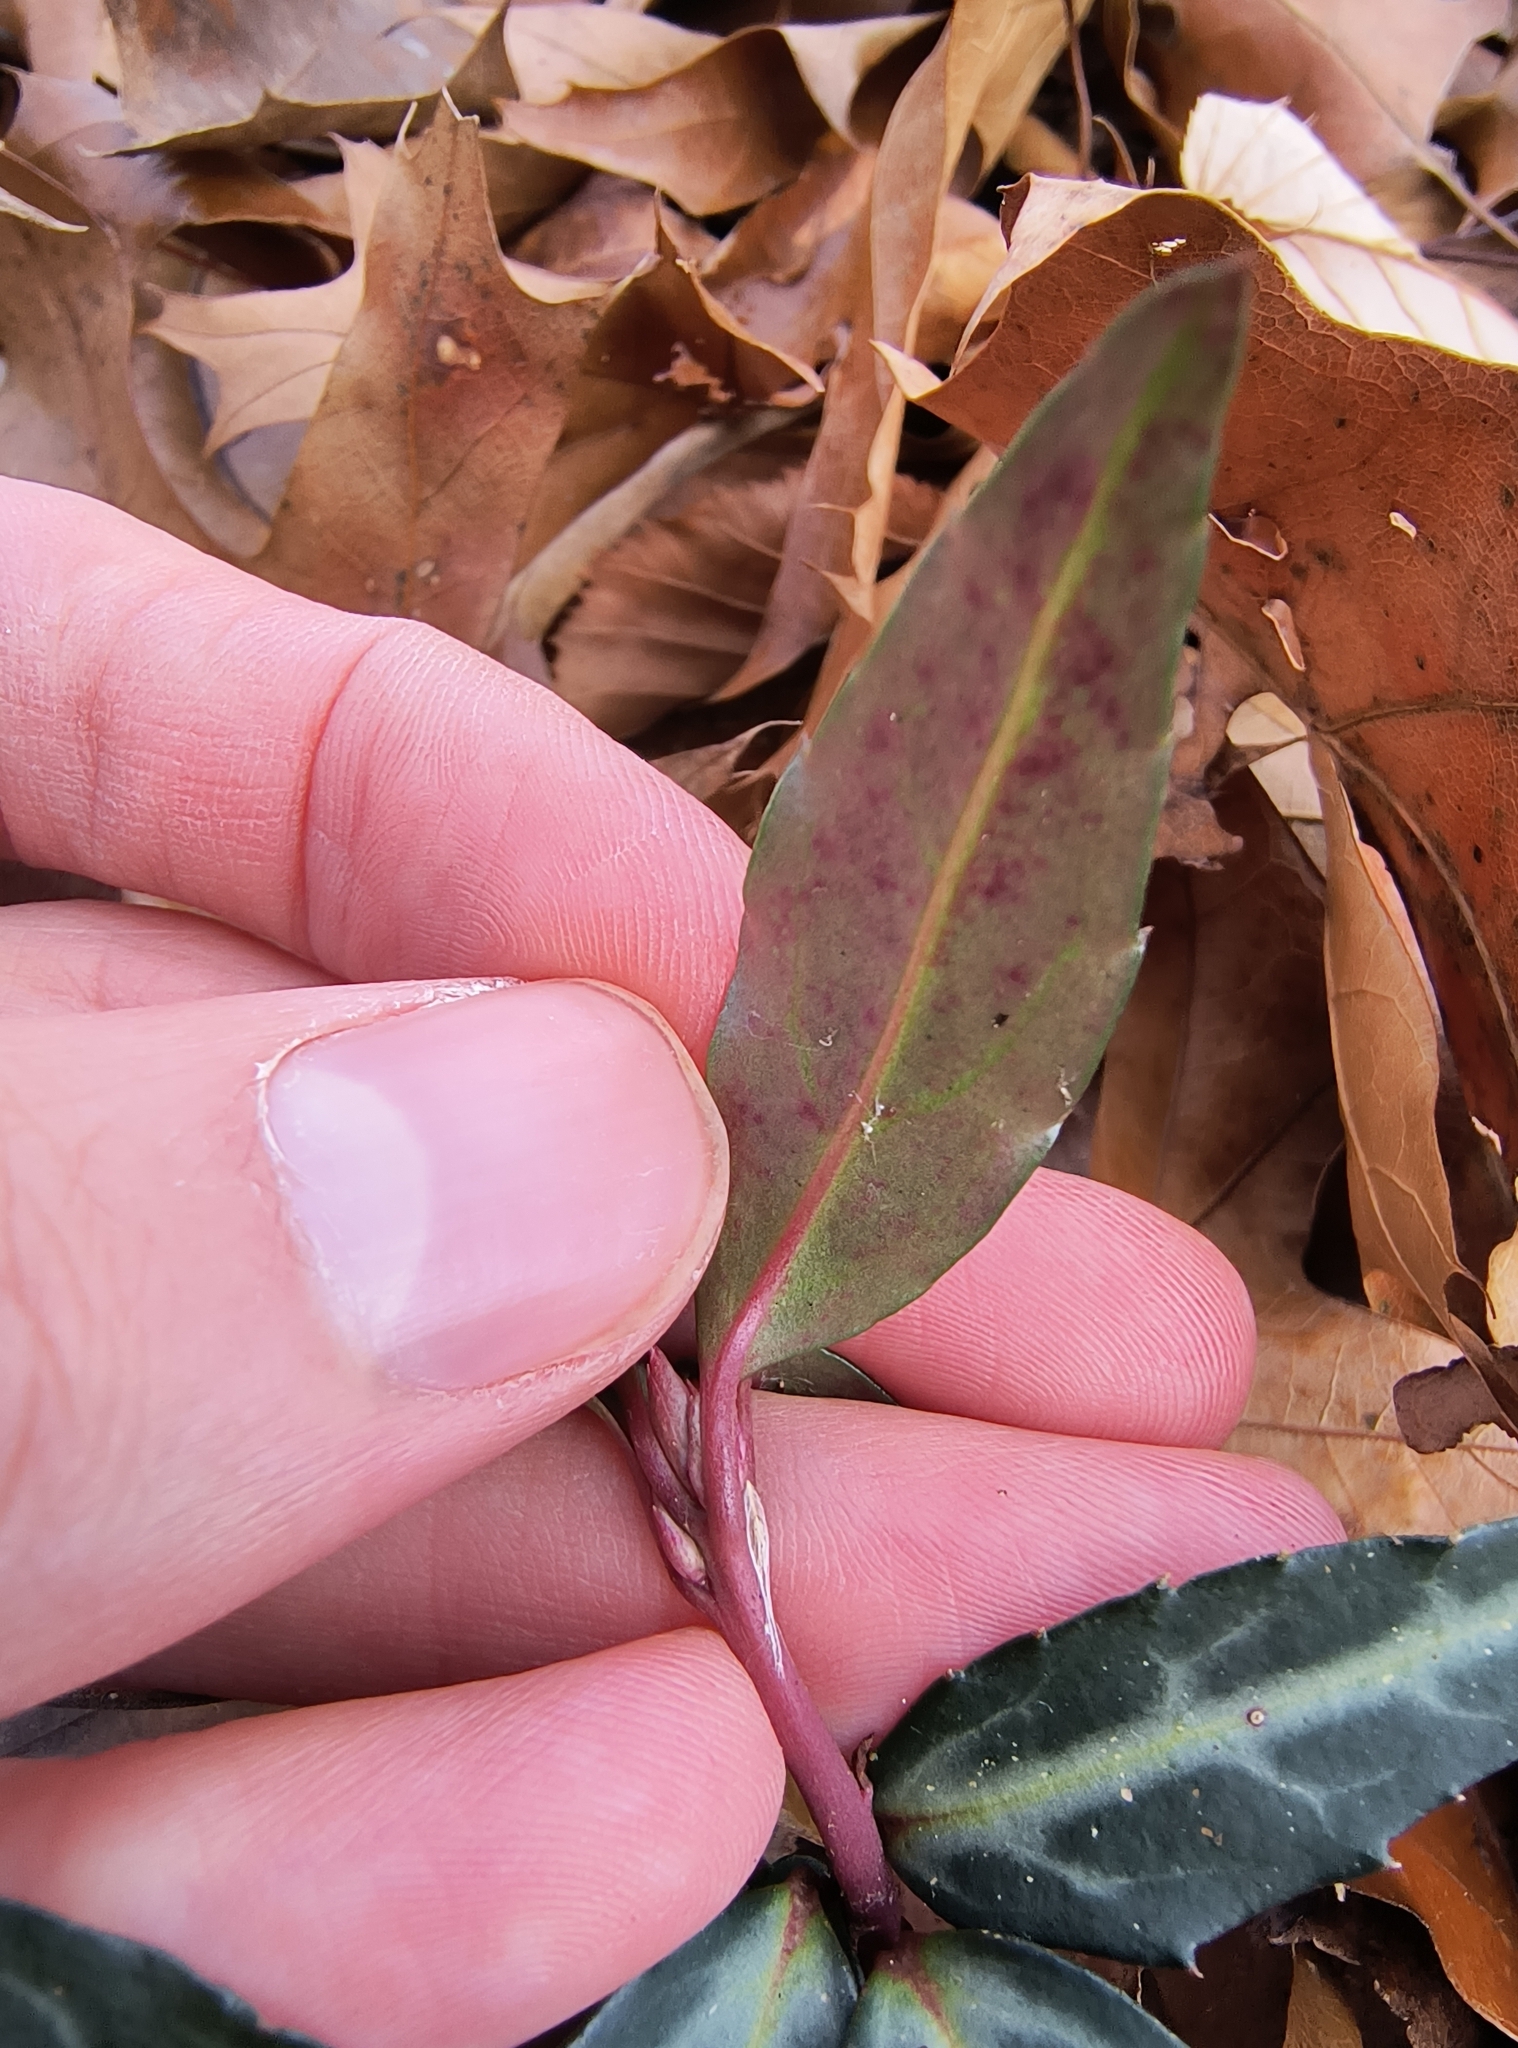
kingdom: Plantae
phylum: Tracheophyta
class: Magnoliopsida
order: Ericales
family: Ericaceae
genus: Chimaphila
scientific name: Chimaphila maculata
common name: Spotted pipsissewa
